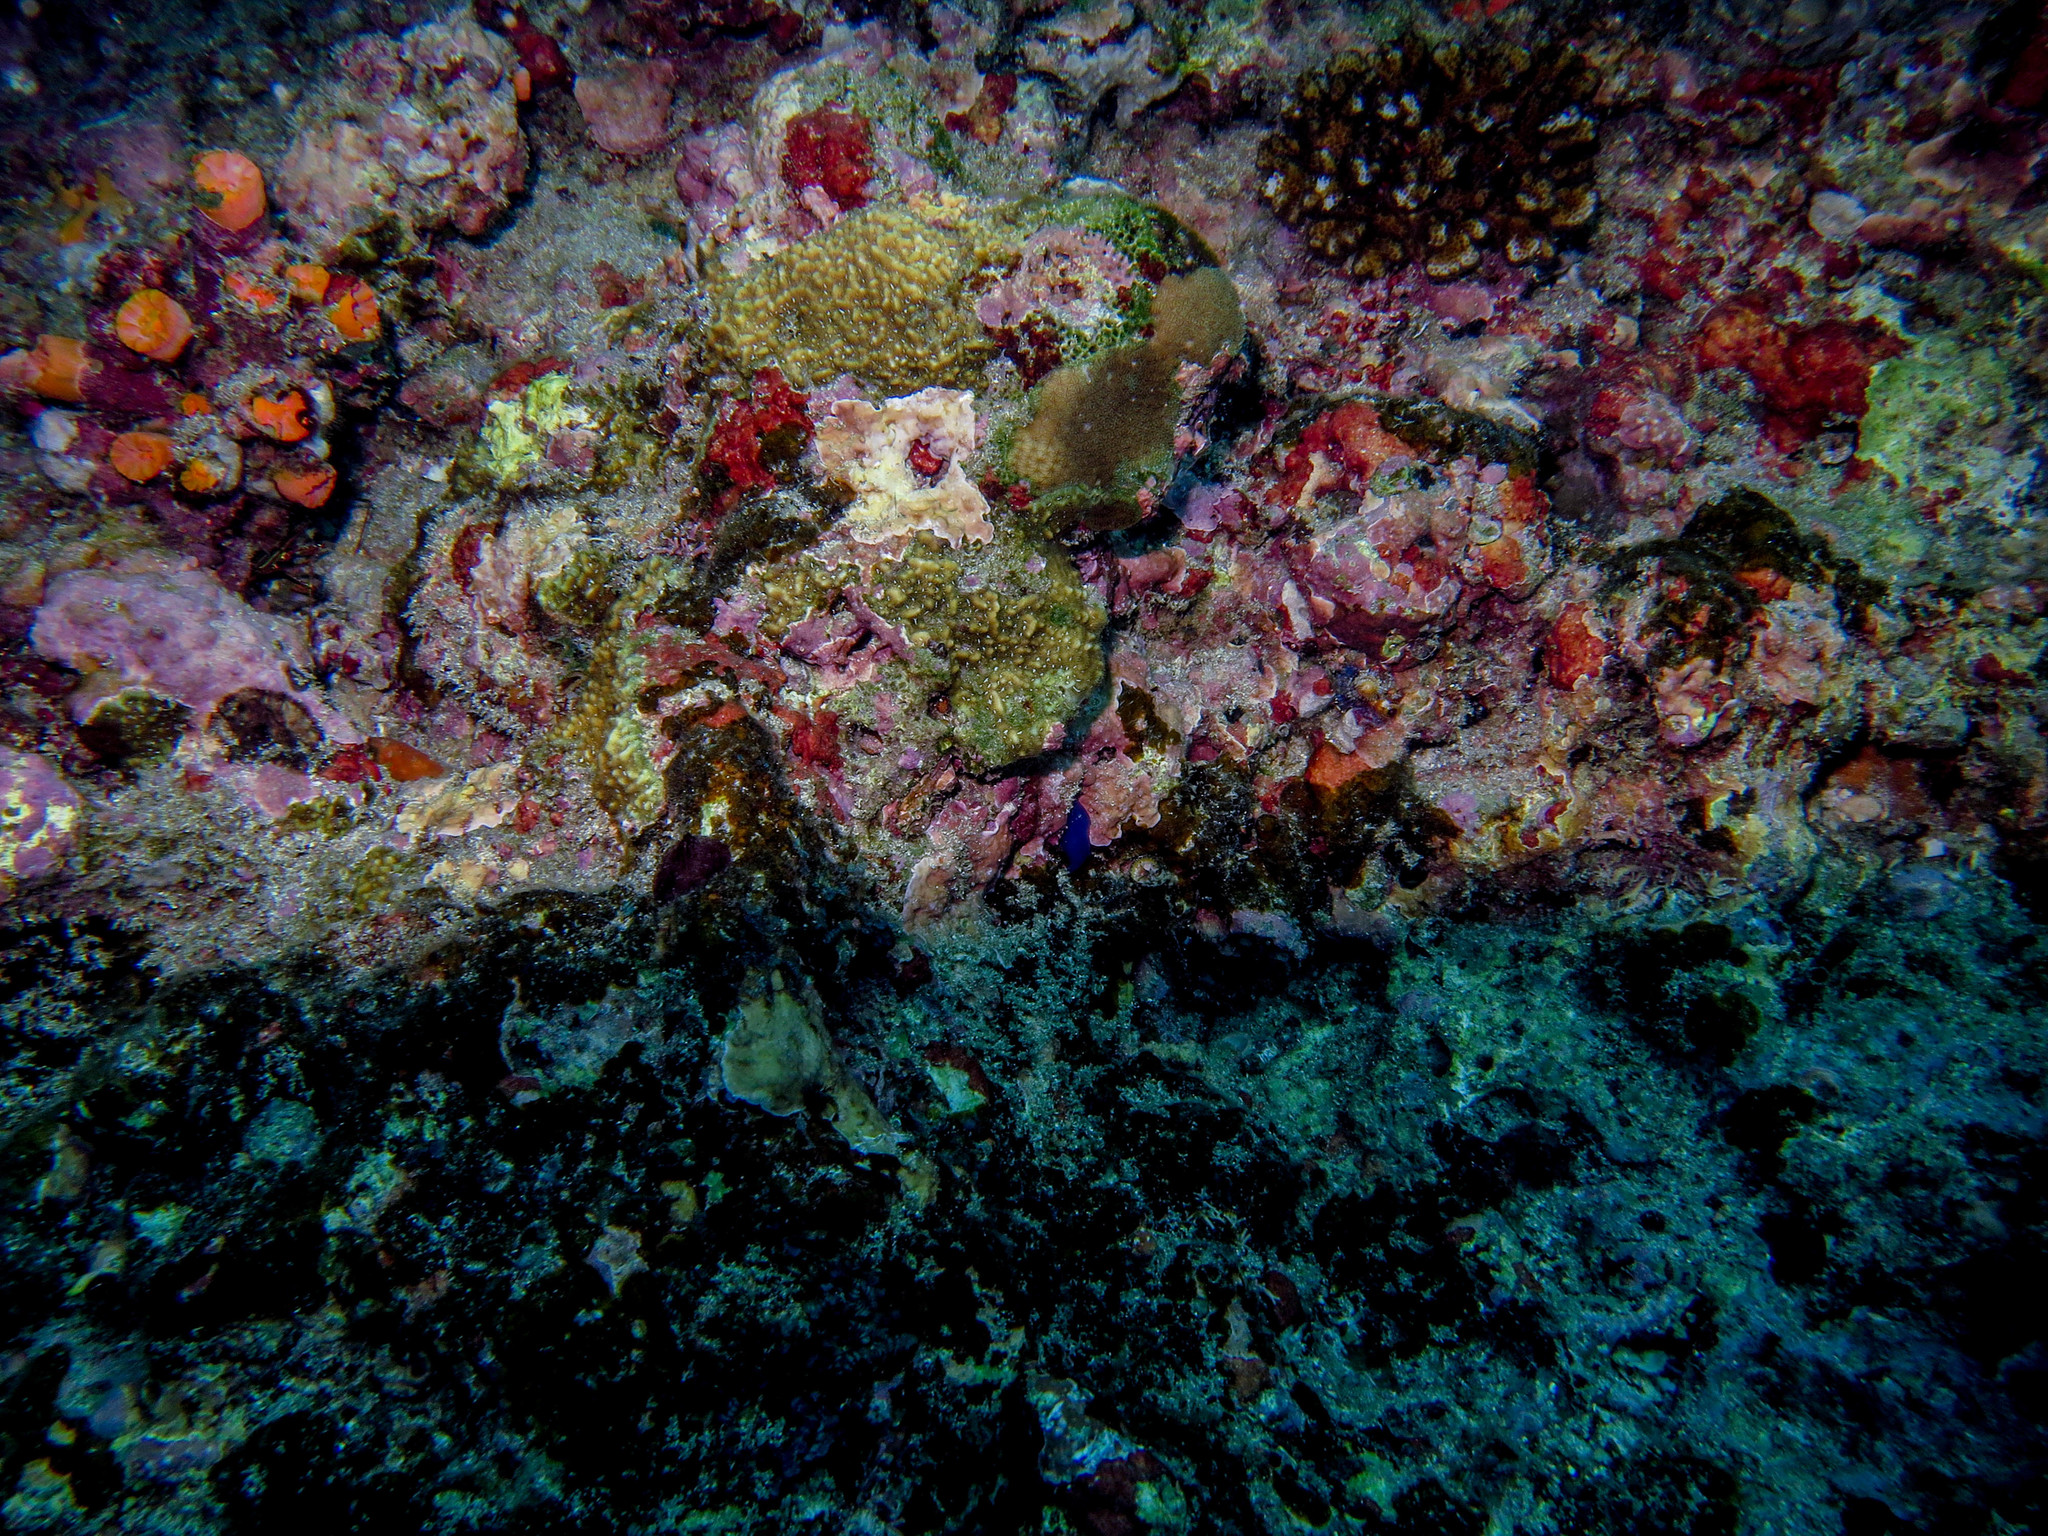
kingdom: Animalia
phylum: Cnidaria
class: Anthozoa
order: Scleractinia
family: Agariciidae
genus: Pavona
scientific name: Pavona chiriquiensis
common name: Leaf coral
